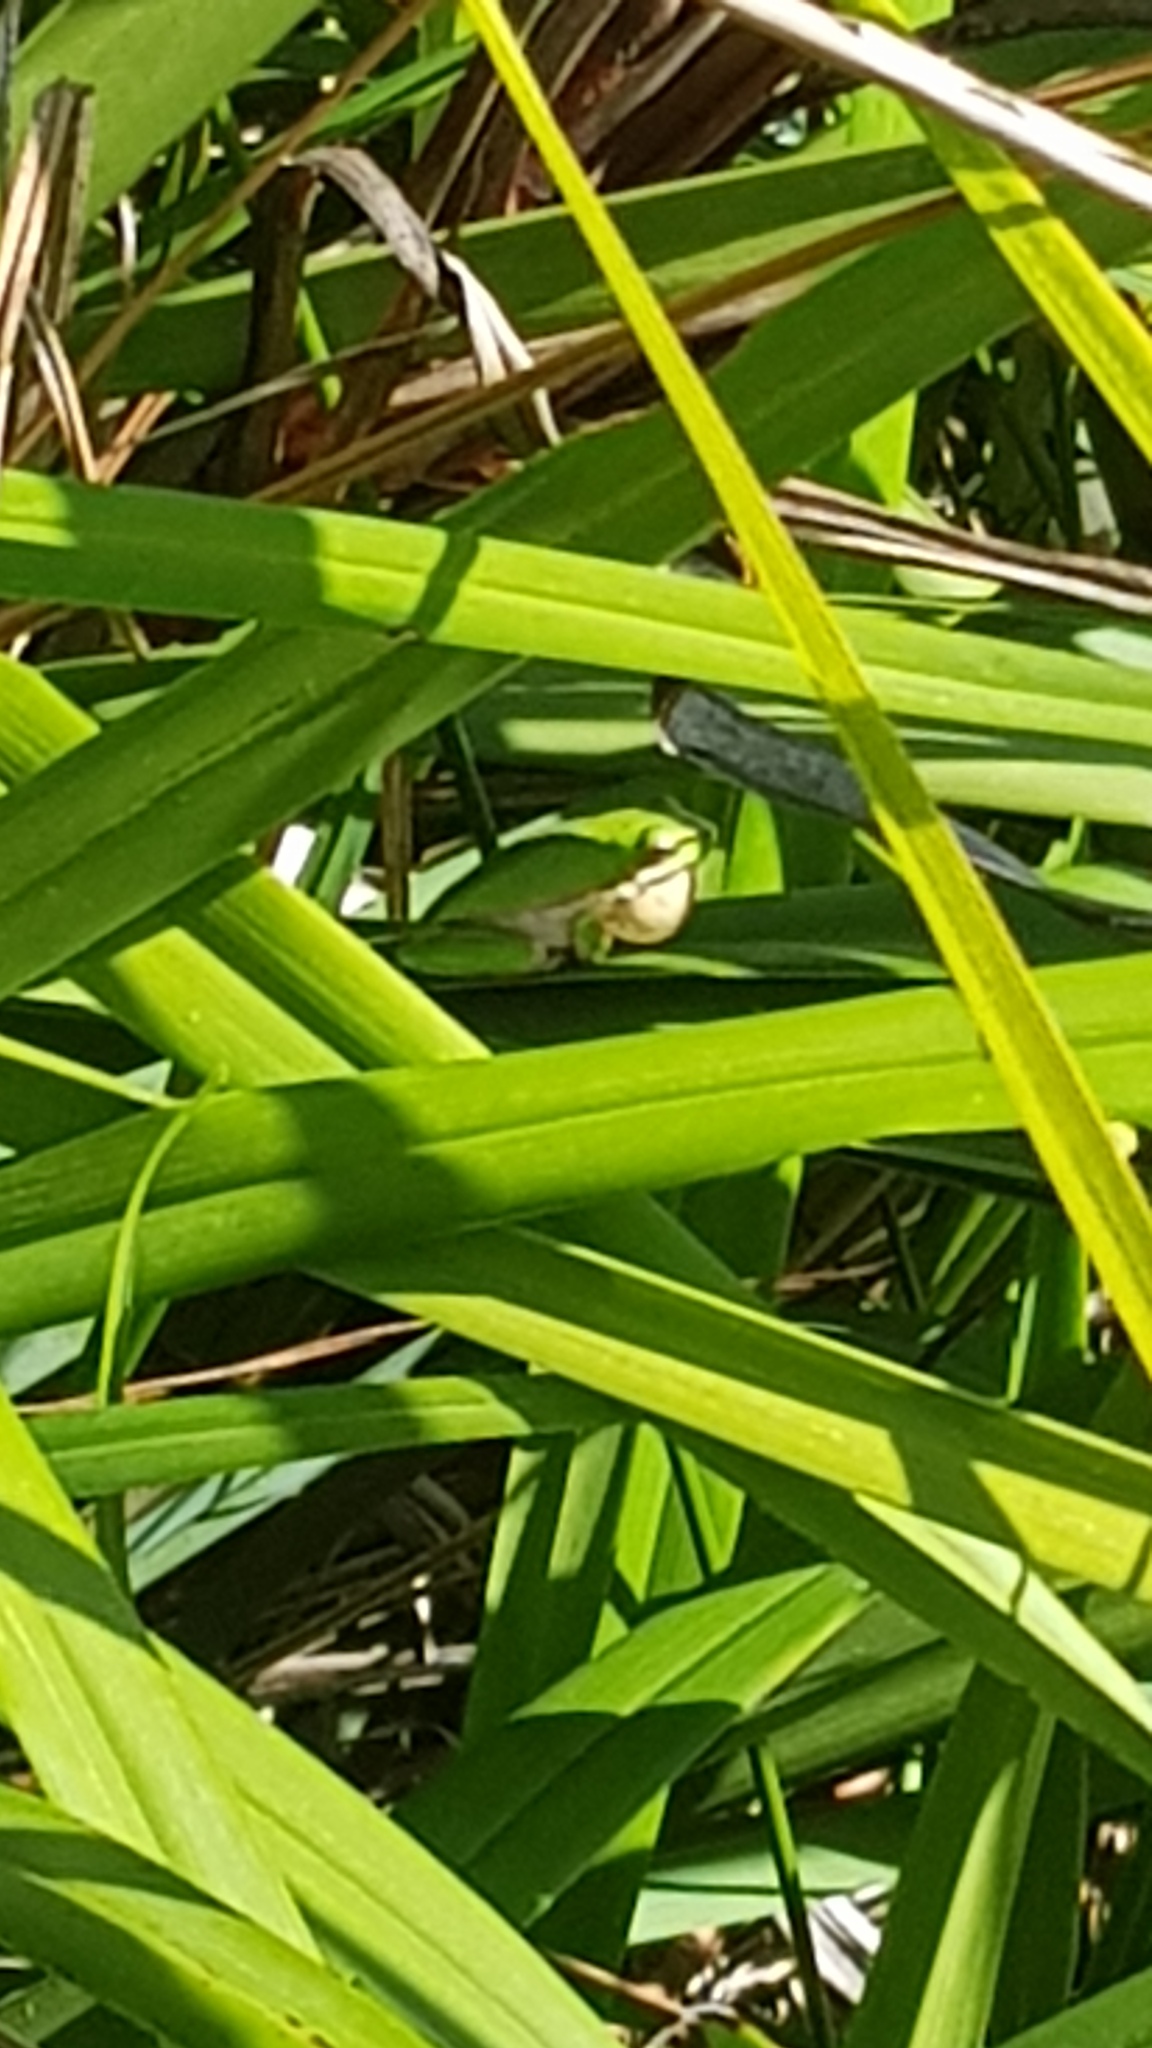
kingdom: Animalia
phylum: Chordata
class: Amphibia
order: Anura
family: Pelodryadidae
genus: Litoria
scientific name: Litoria fallax
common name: Eastern dwarf treefrog
